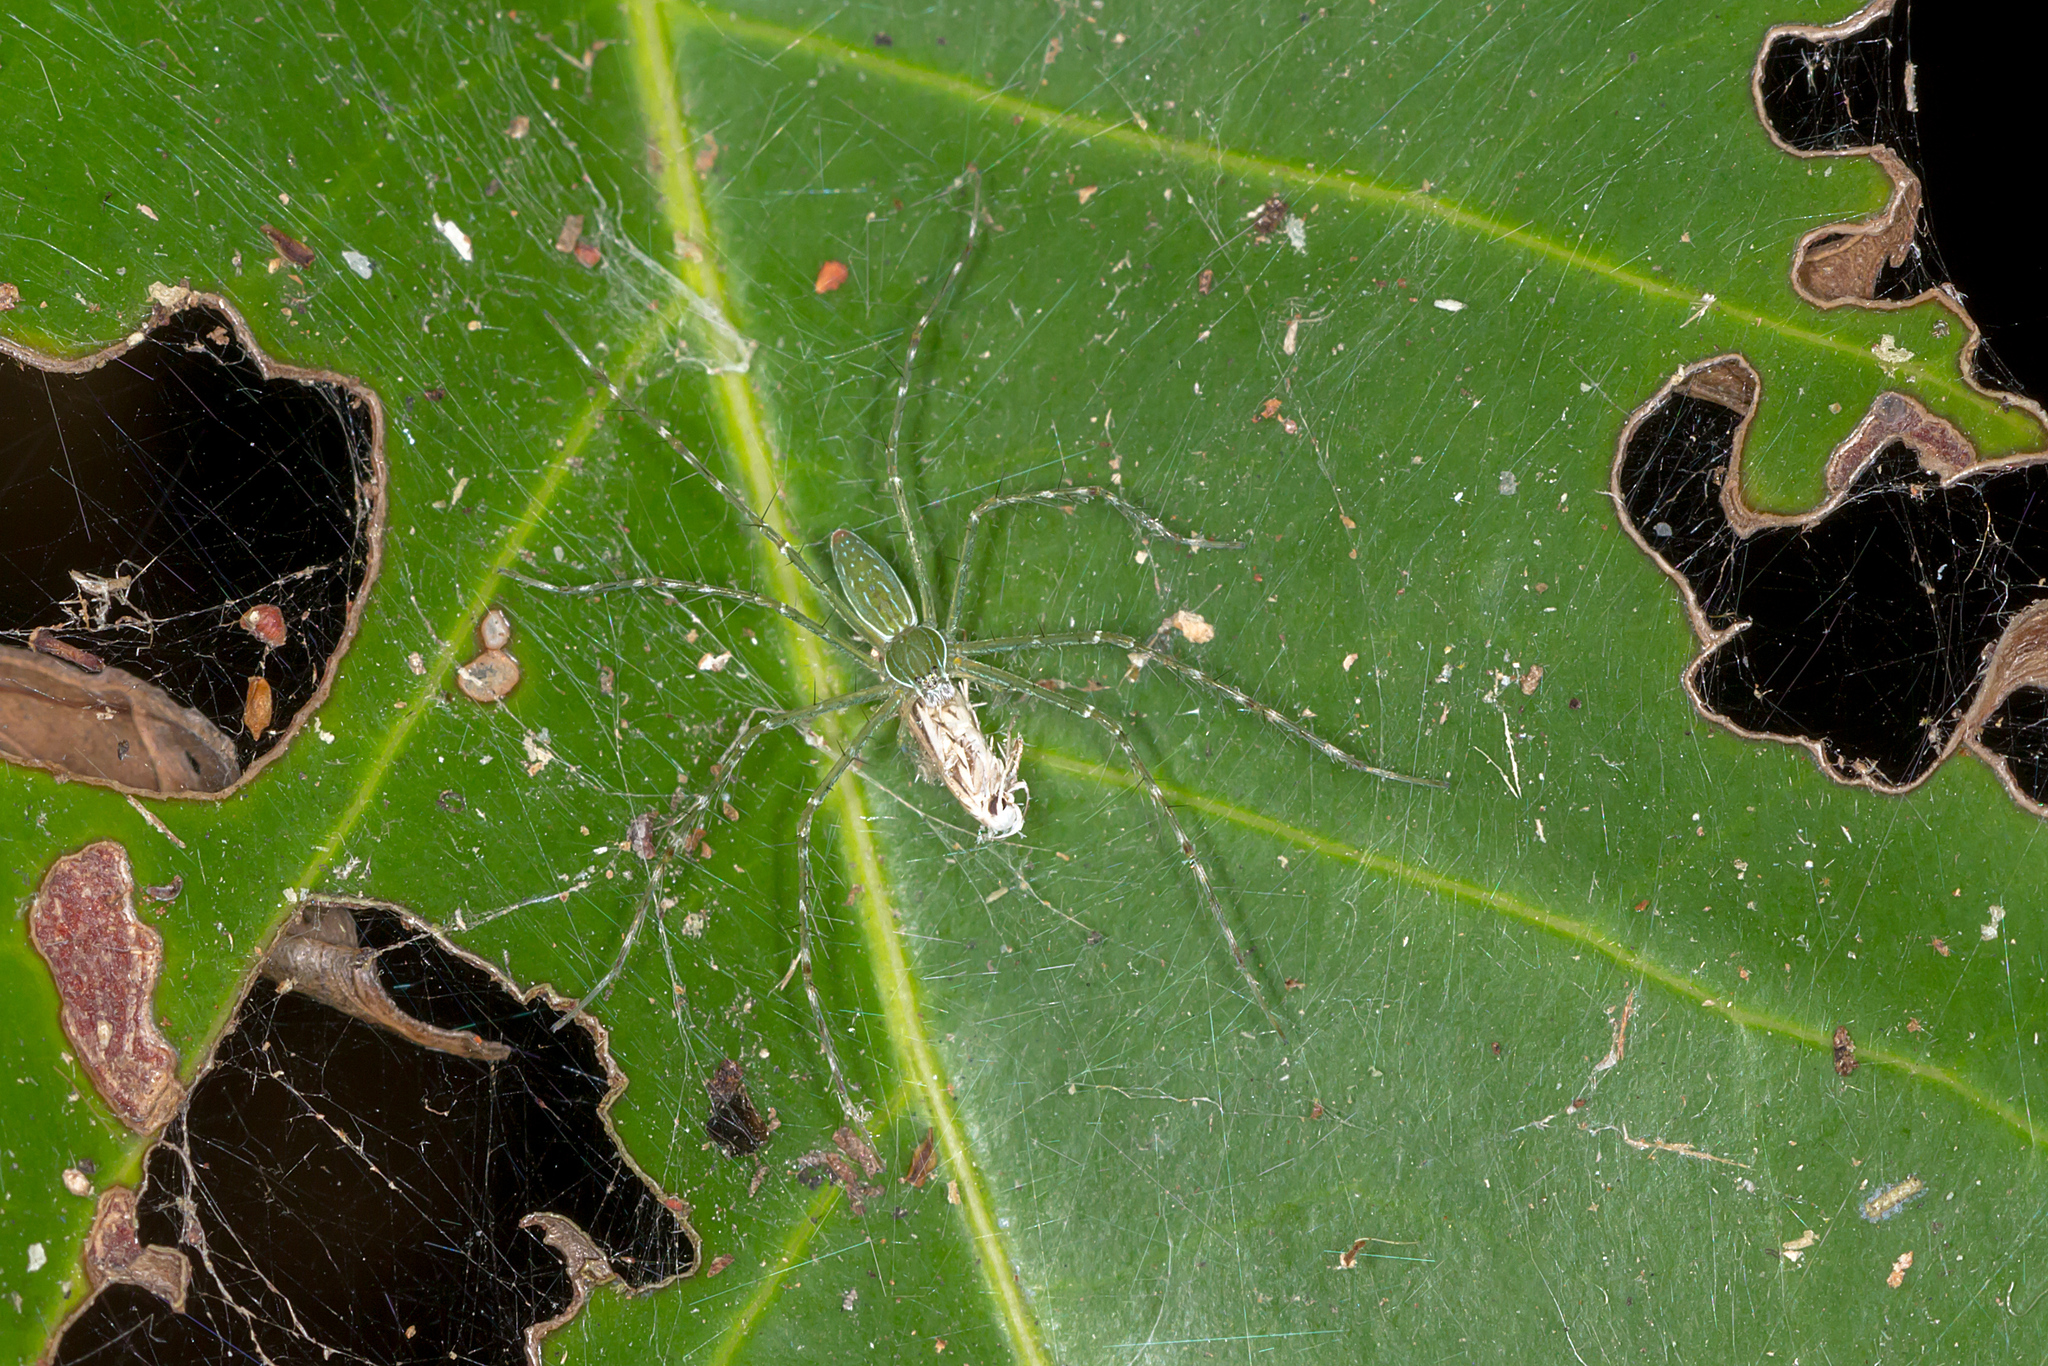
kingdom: Animalia
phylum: Arthropoda
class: Arachnida
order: Araneae
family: Pisauridae
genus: Hygropoda
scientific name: Hygropoda lineata
